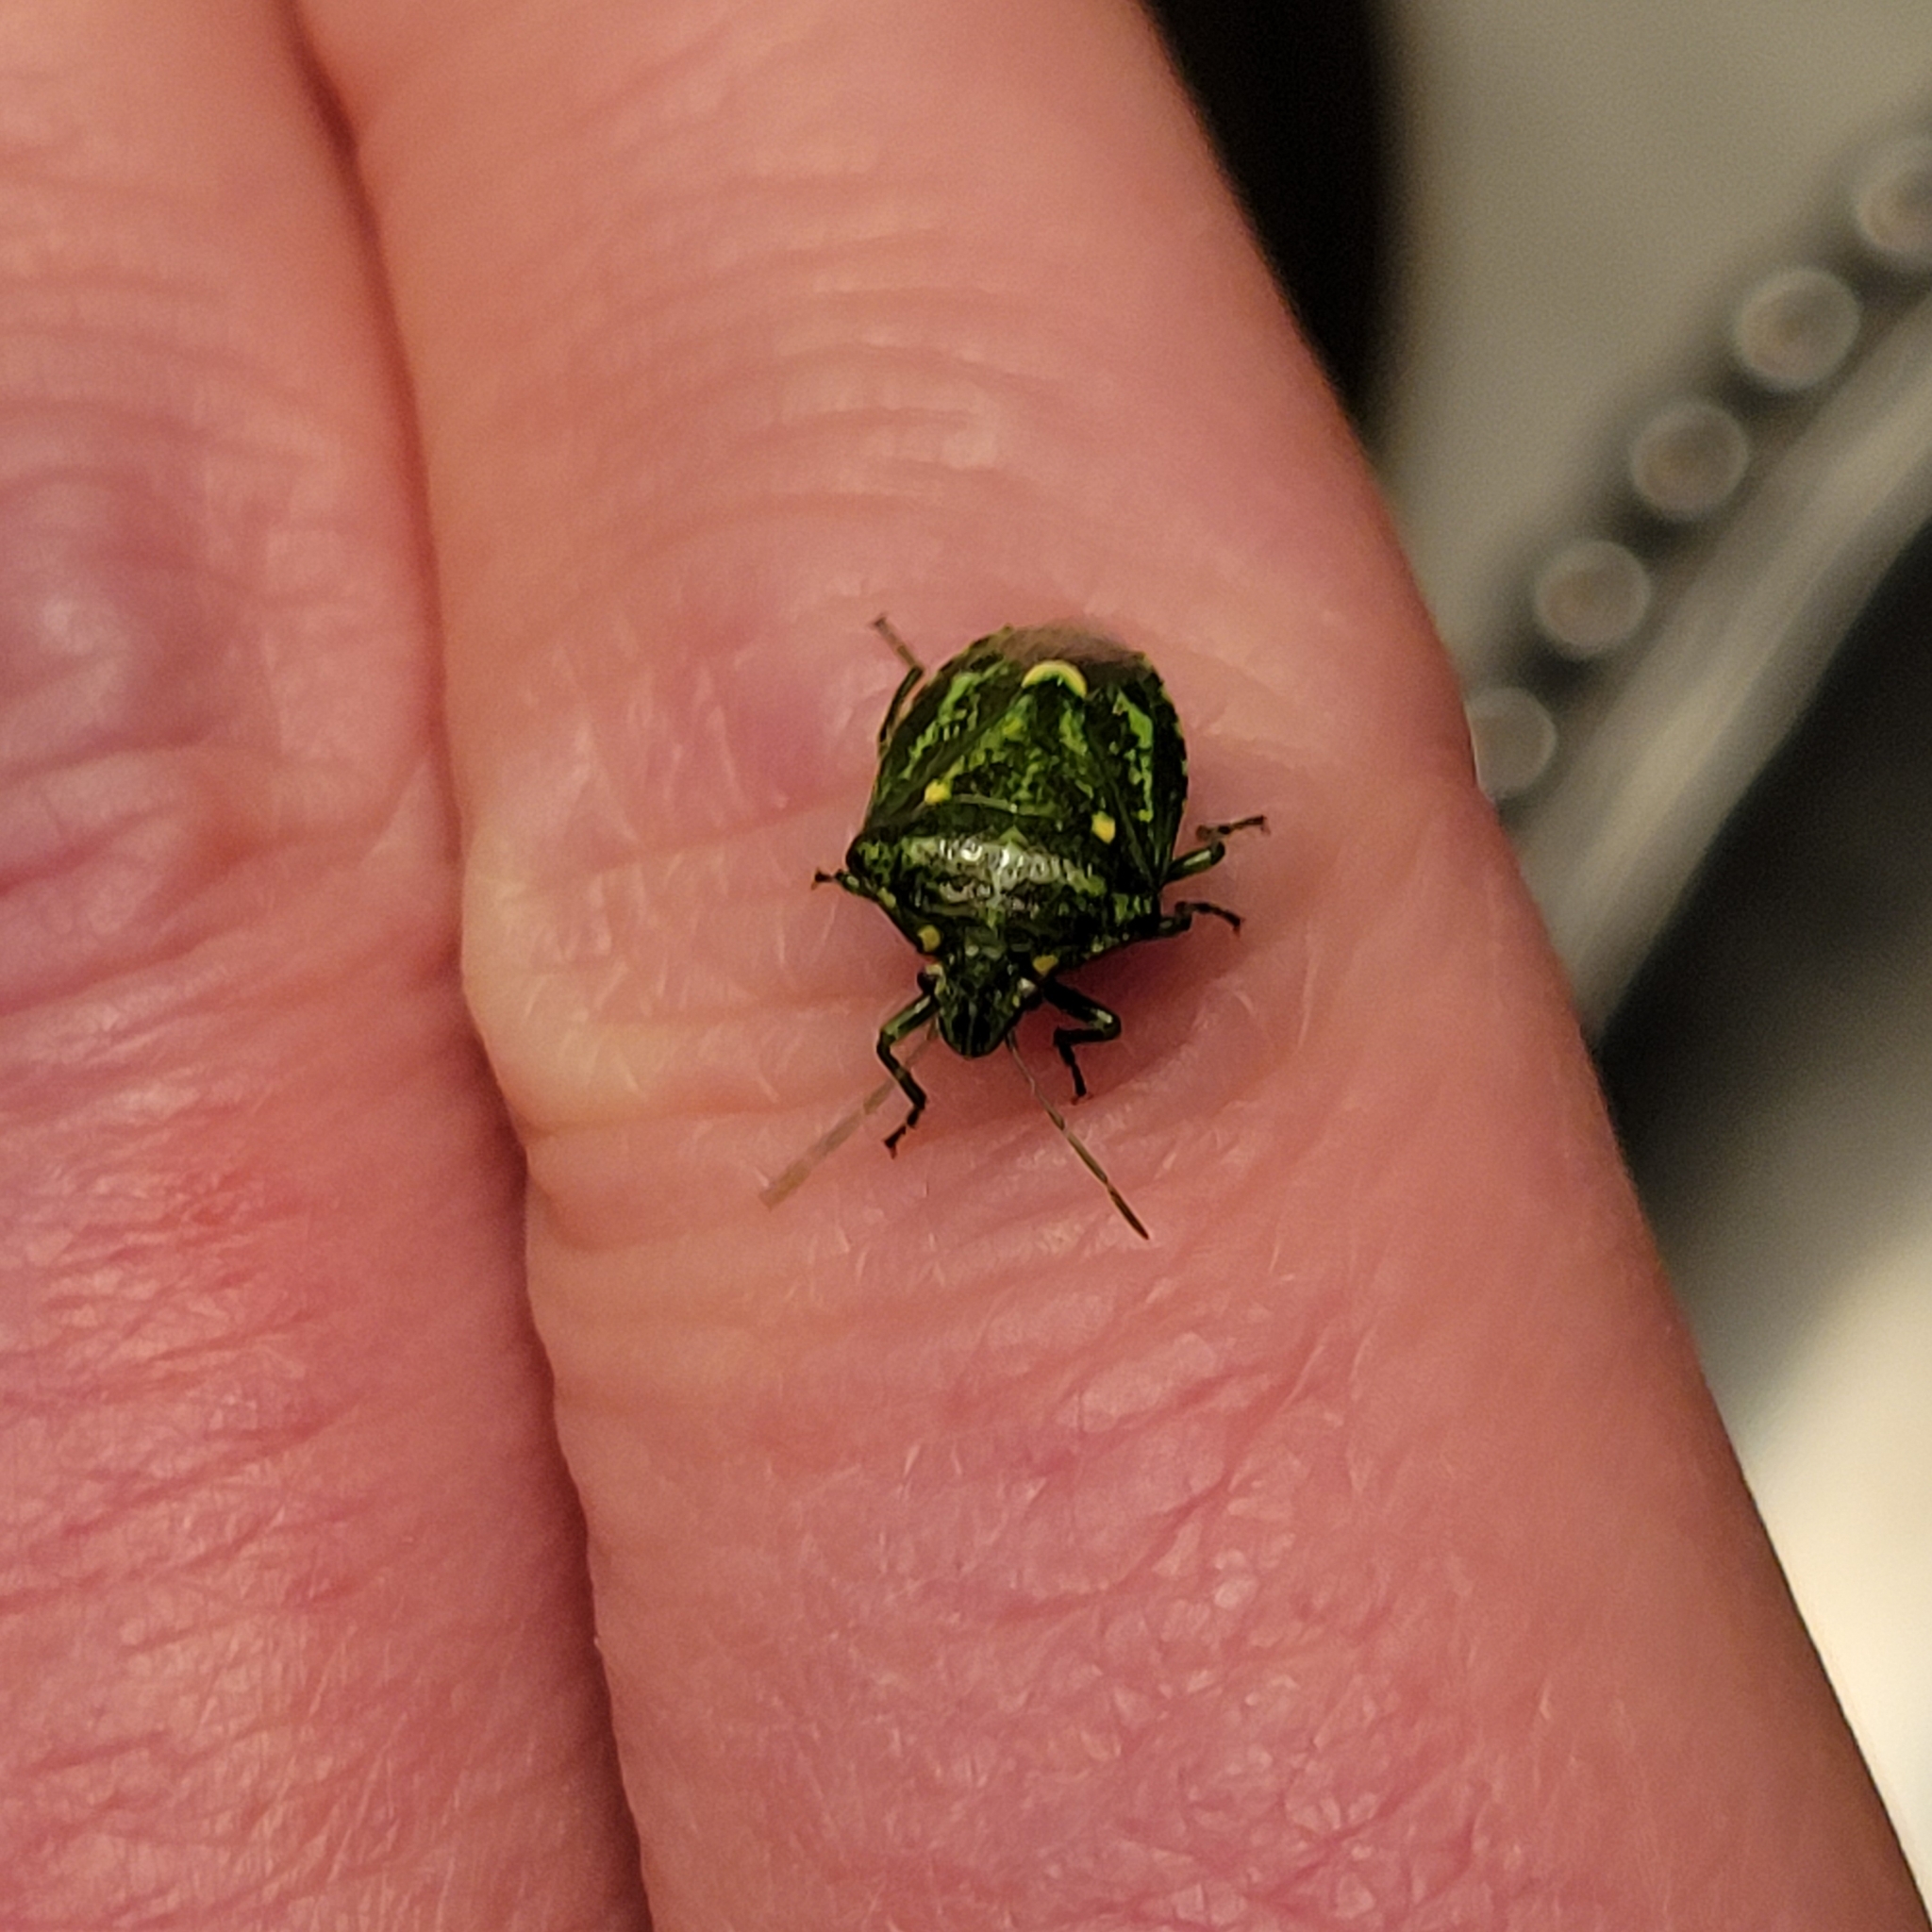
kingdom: Animalia
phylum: Arthropoda
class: Insecta
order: Hemiptera
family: Pentatomidae
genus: Banasa
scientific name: Banasa euchlora
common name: Cedar berry bug
